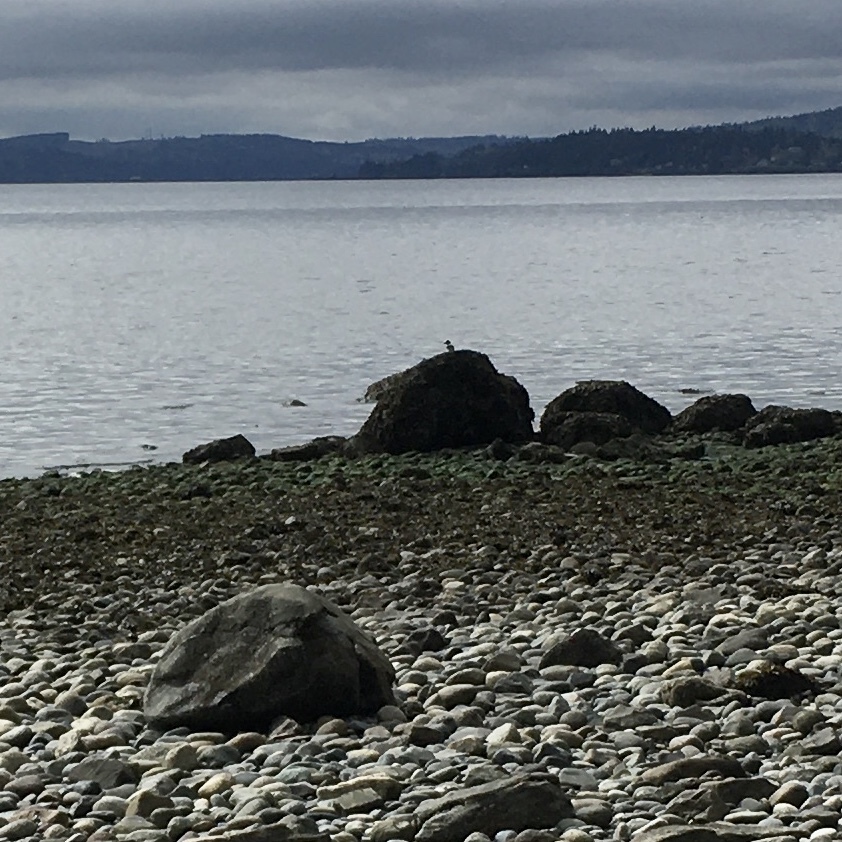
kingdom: Animalia
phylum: Chordata
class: Aves
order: Coraciiformes
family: Alcedinidae
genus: Megaceryle
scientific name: Megaceryle alcyon
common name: Belted kingfisher
